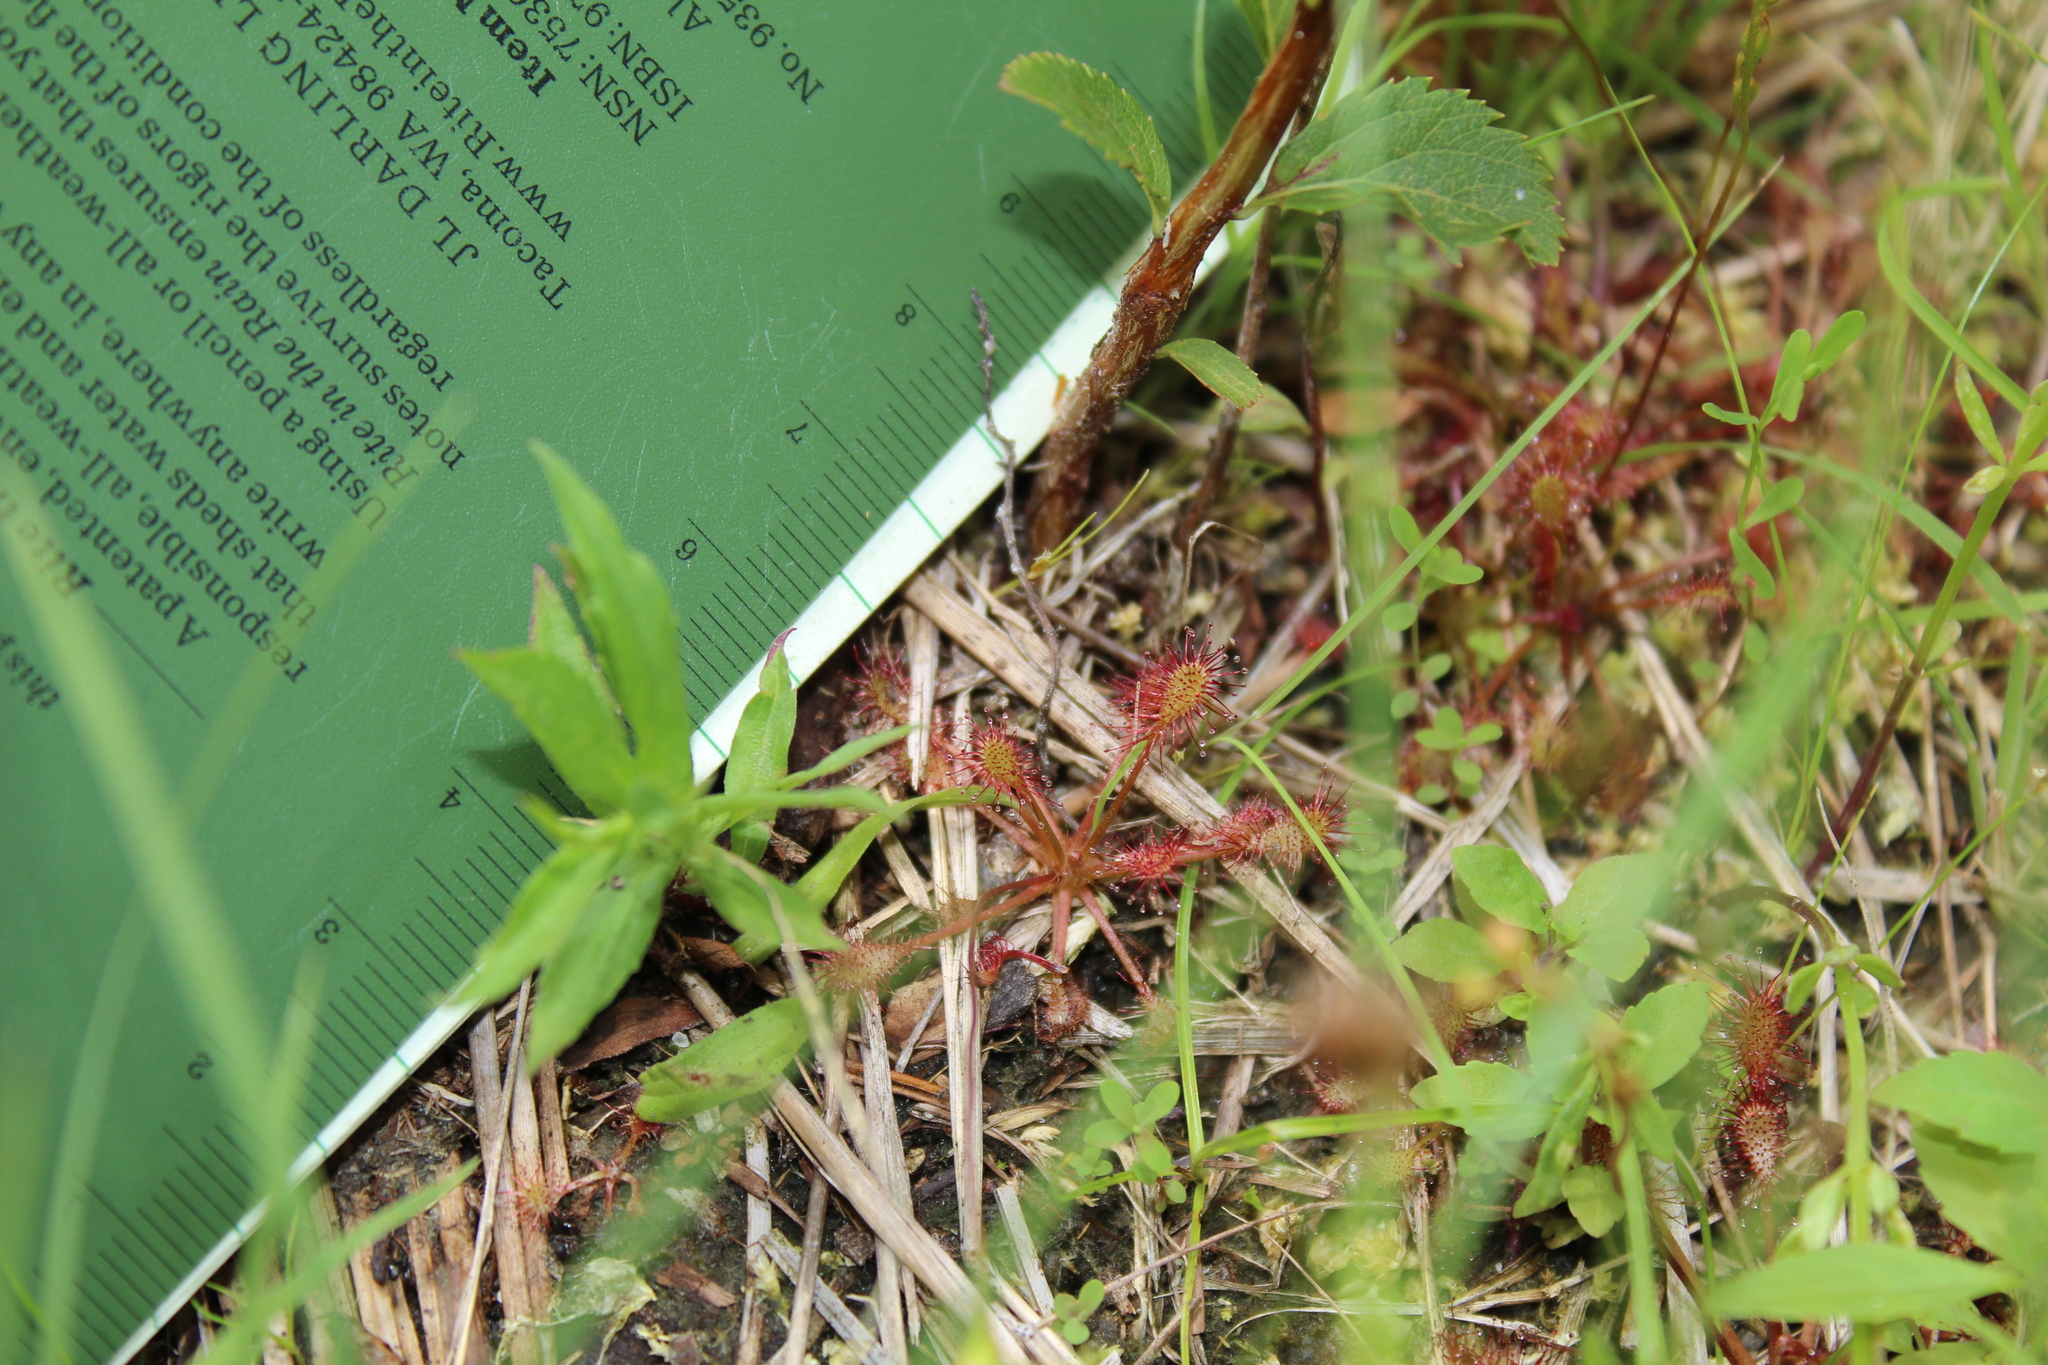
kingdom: Plantae
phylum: Tracheophyta
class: Magnoliopsida
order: Caryophyllales
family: Droseraceae
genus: Drosera
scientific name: Drosera intermedia
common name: Oblong-leaved sundew
